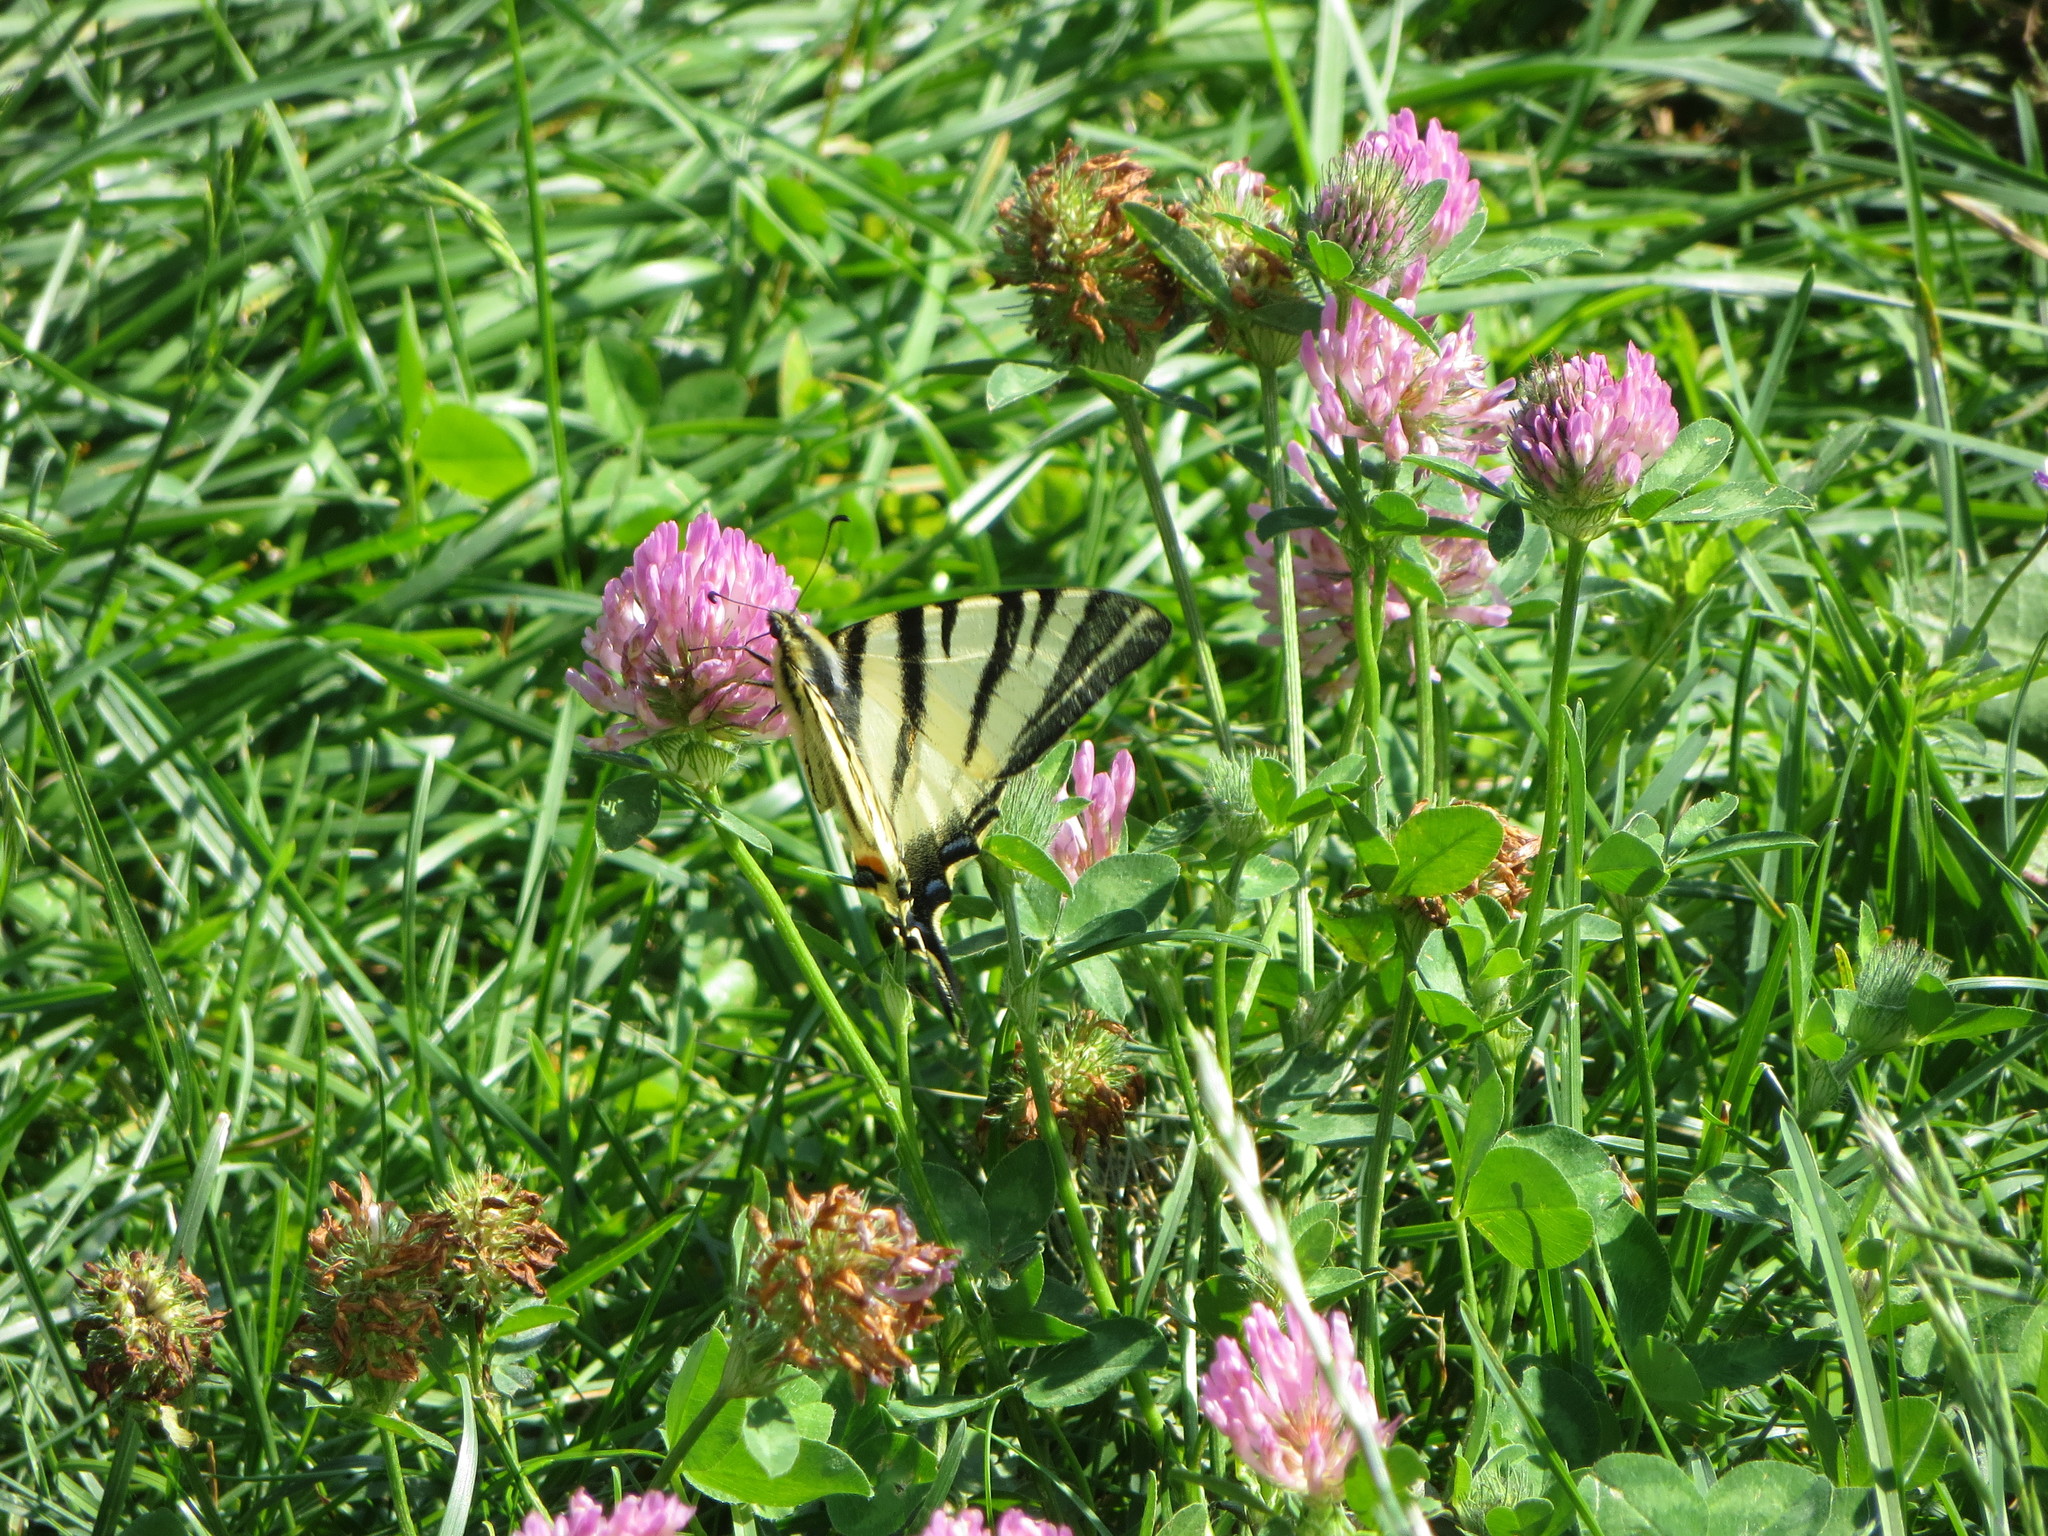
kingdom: Animalia
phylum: Arthropoda
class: Insecta
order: Lepidoptera
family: Papilionidae
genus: Iphiclides
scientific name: Iphiclides podalirius
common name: Scarce swallowtail
